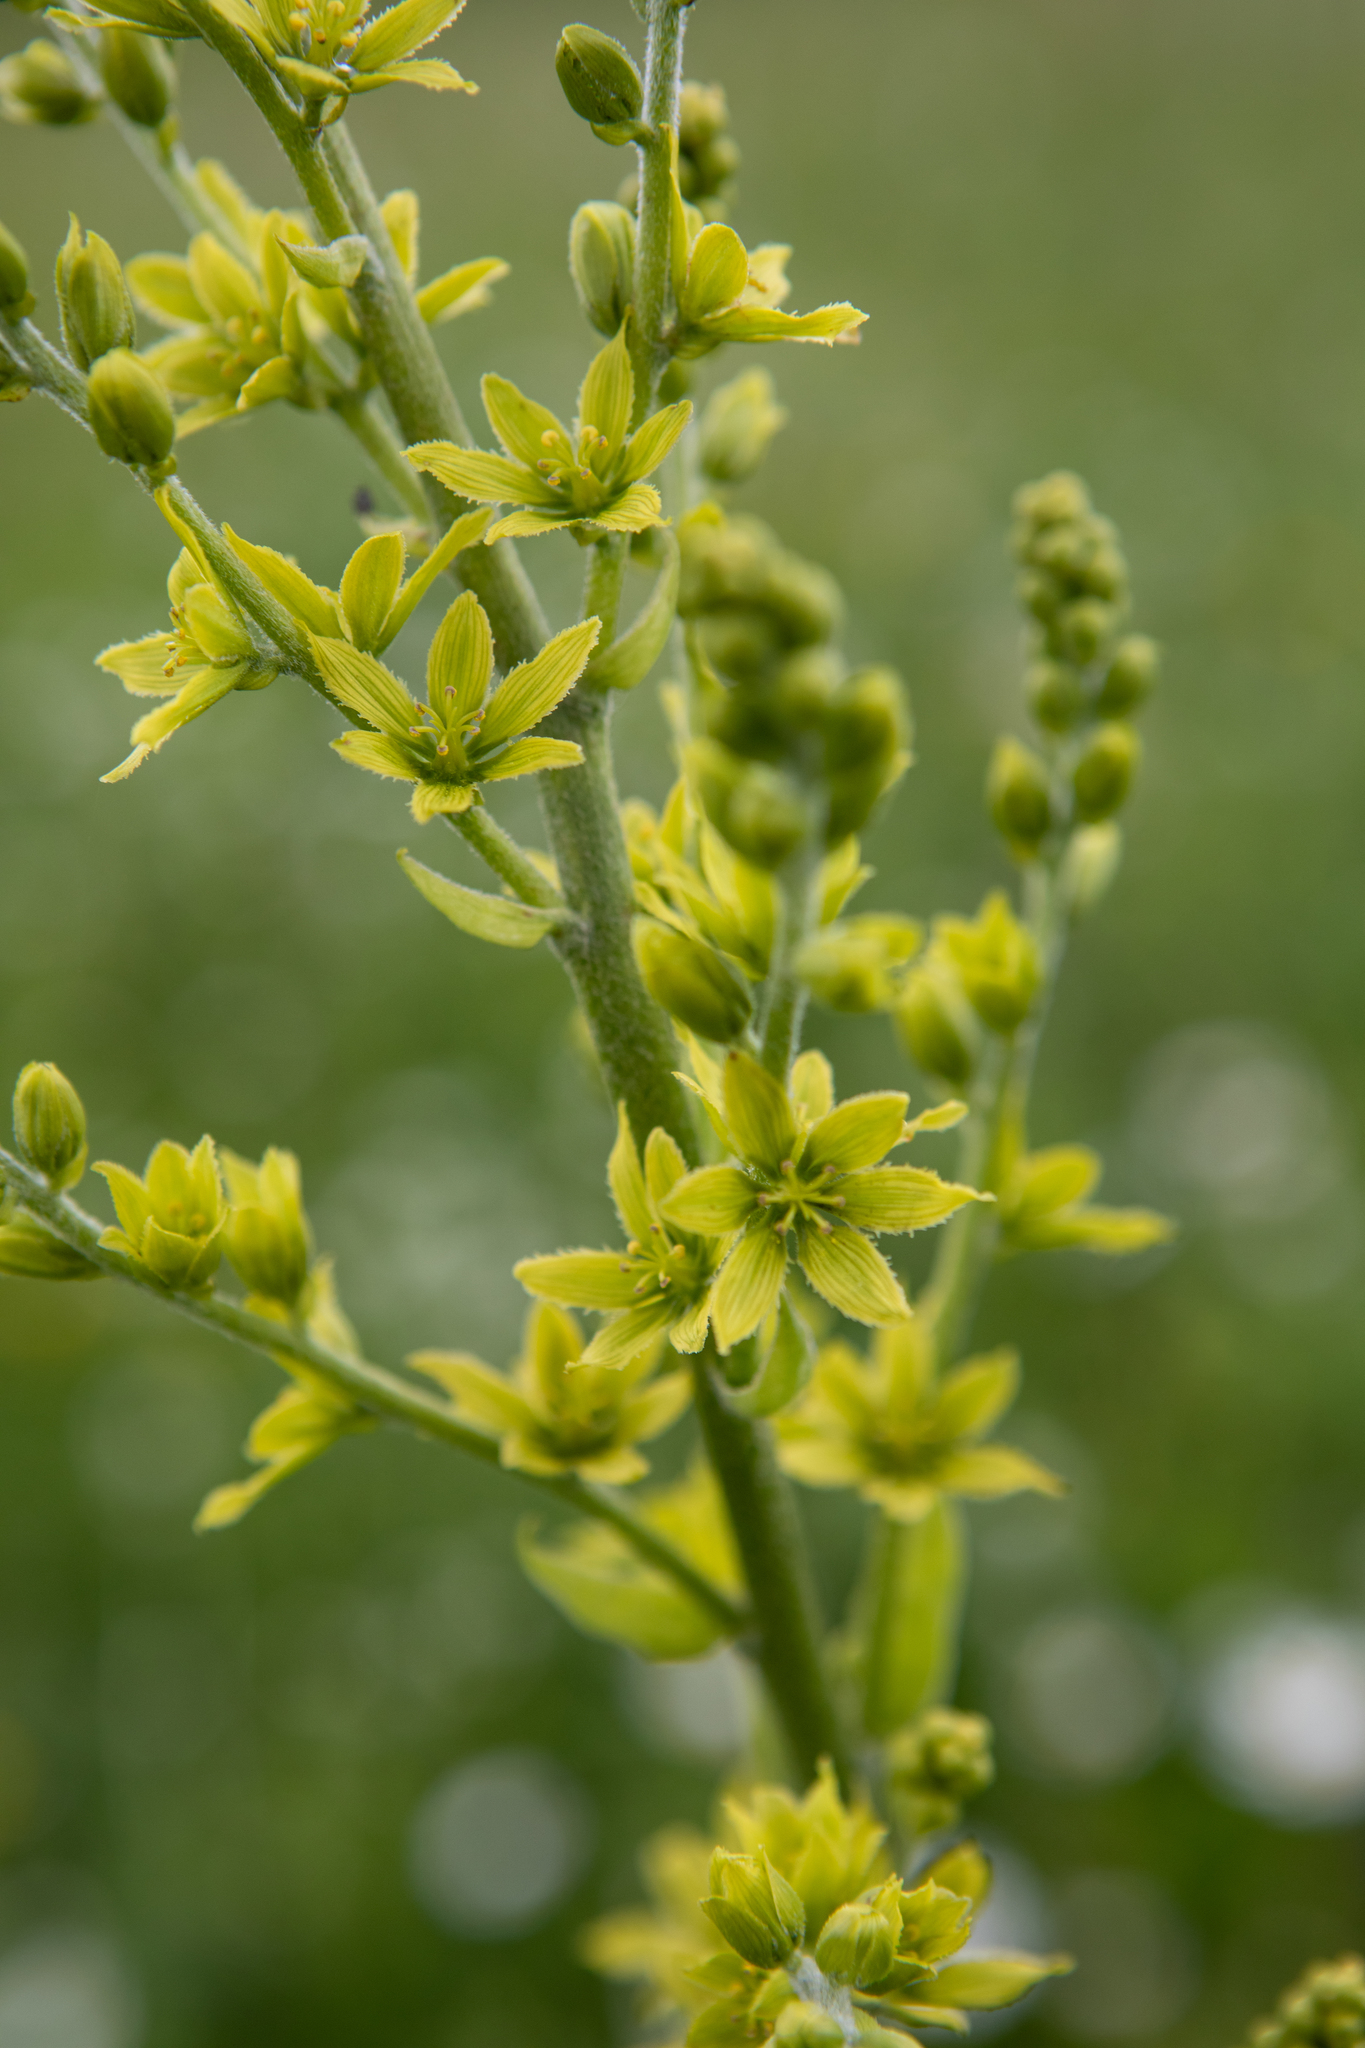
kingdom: Plantae
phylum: Tracheophyta
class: Liliopsida
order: Liliales
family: Melanthiaceae
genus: Veratrum
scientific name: Veratrum lobelianum
